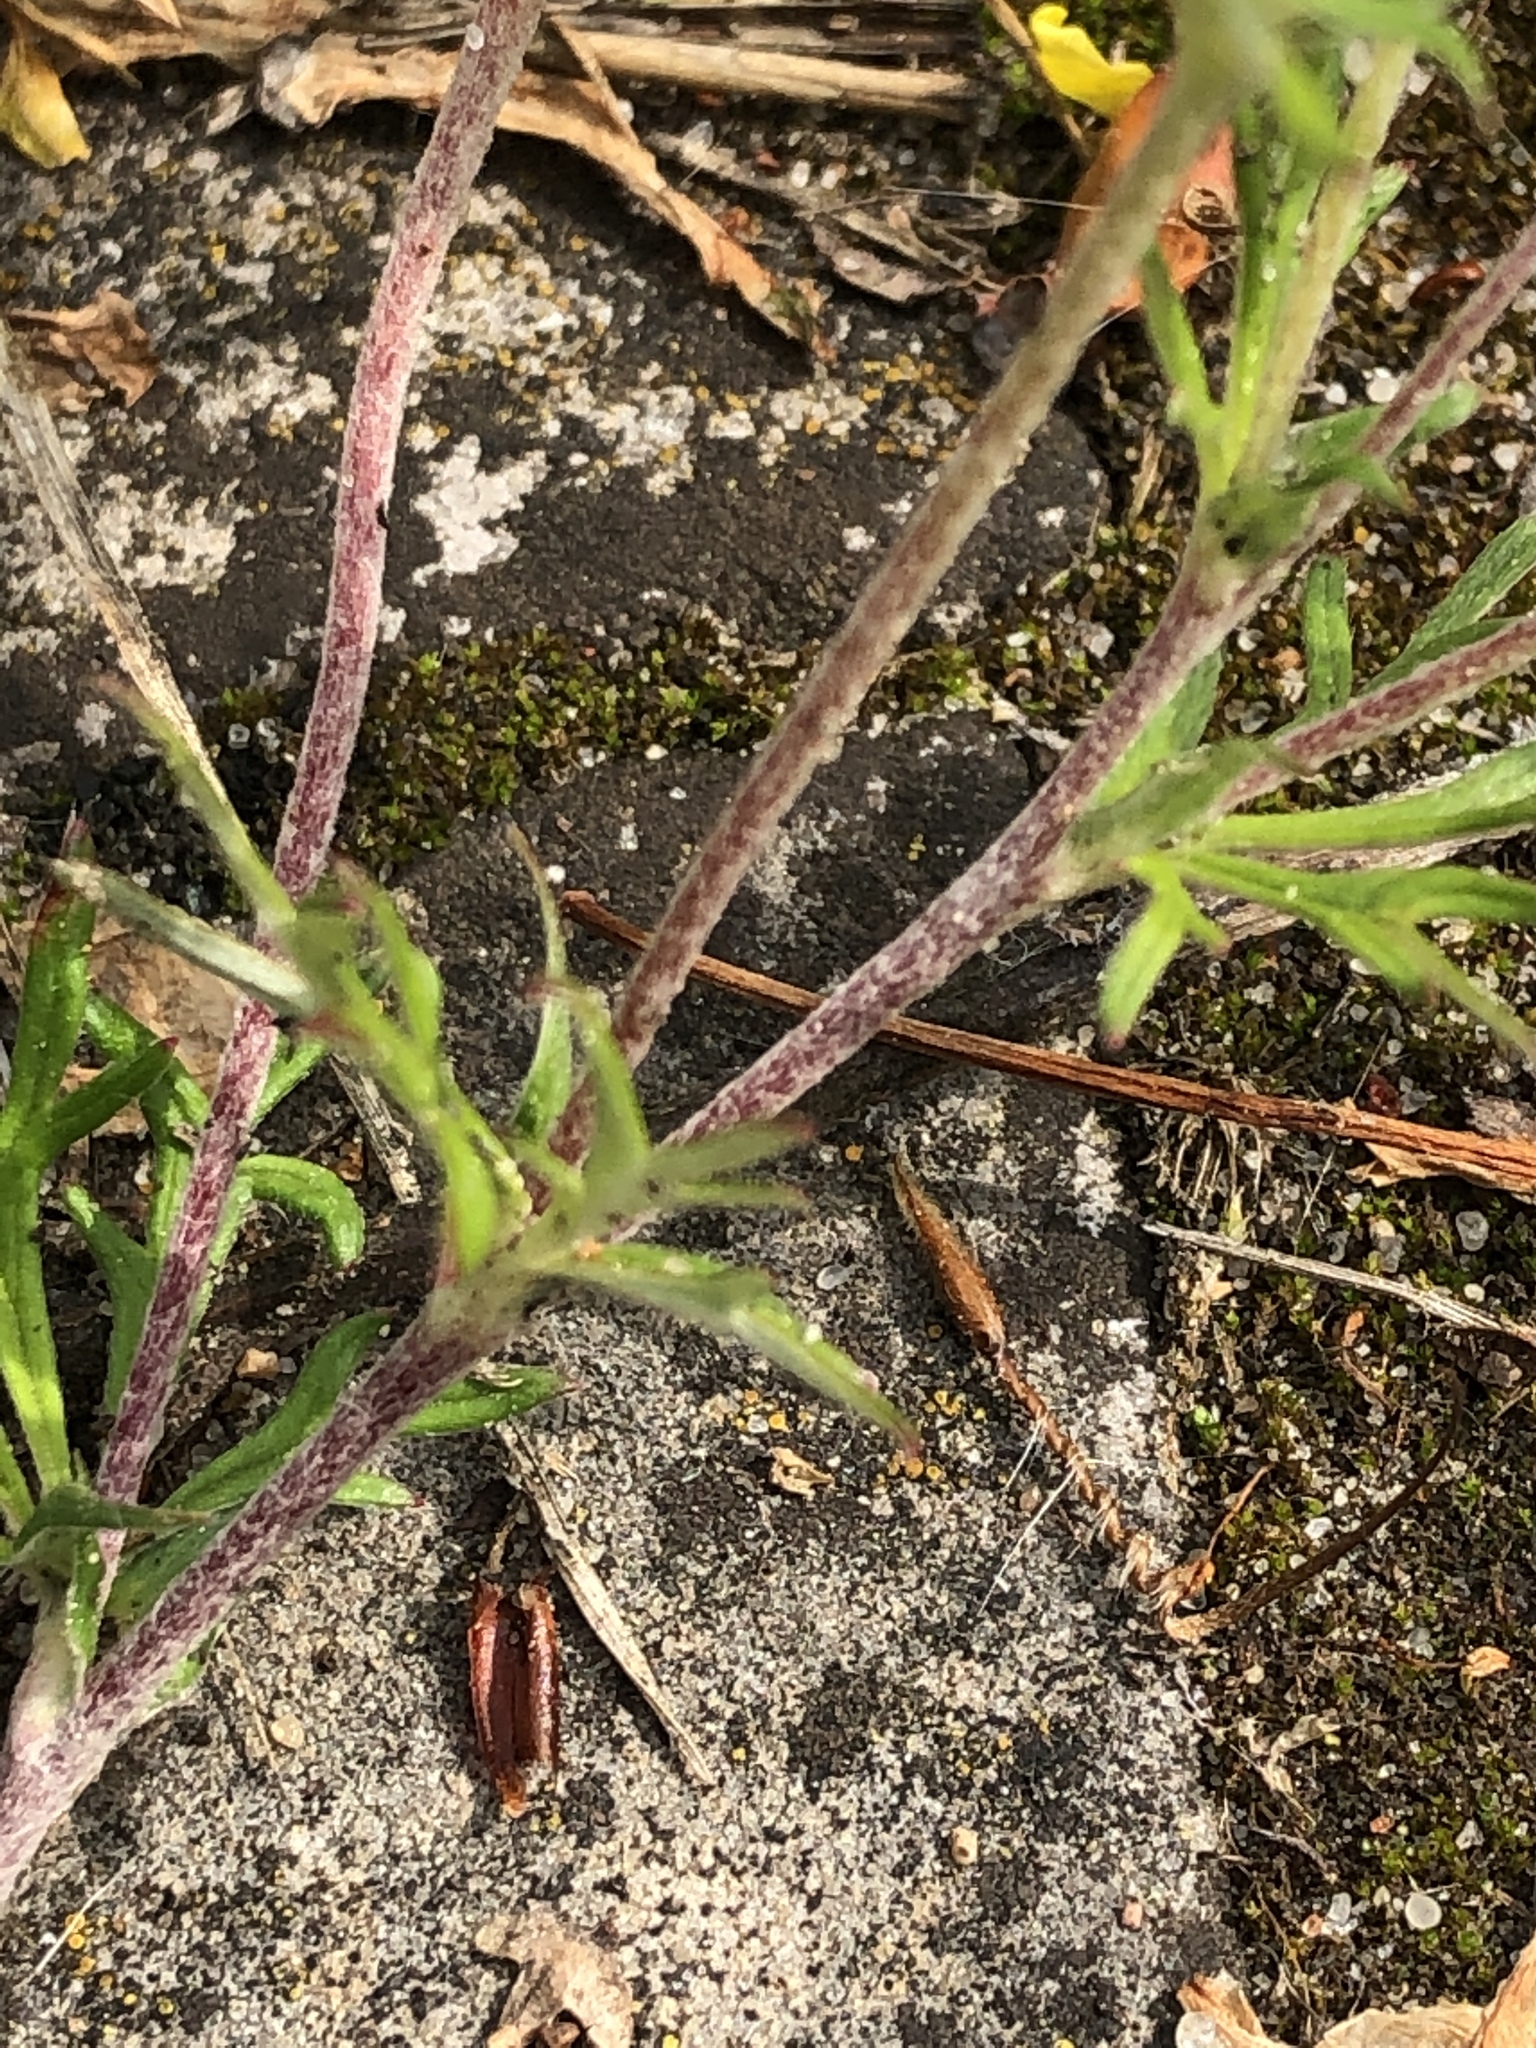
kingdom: Plantae
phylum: Tracheophyta
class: Magnoliopsida
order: Rosales
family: Rosaceae
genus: Potentilla
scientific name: Potentilla argentea
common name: Hoary cinquefoil
